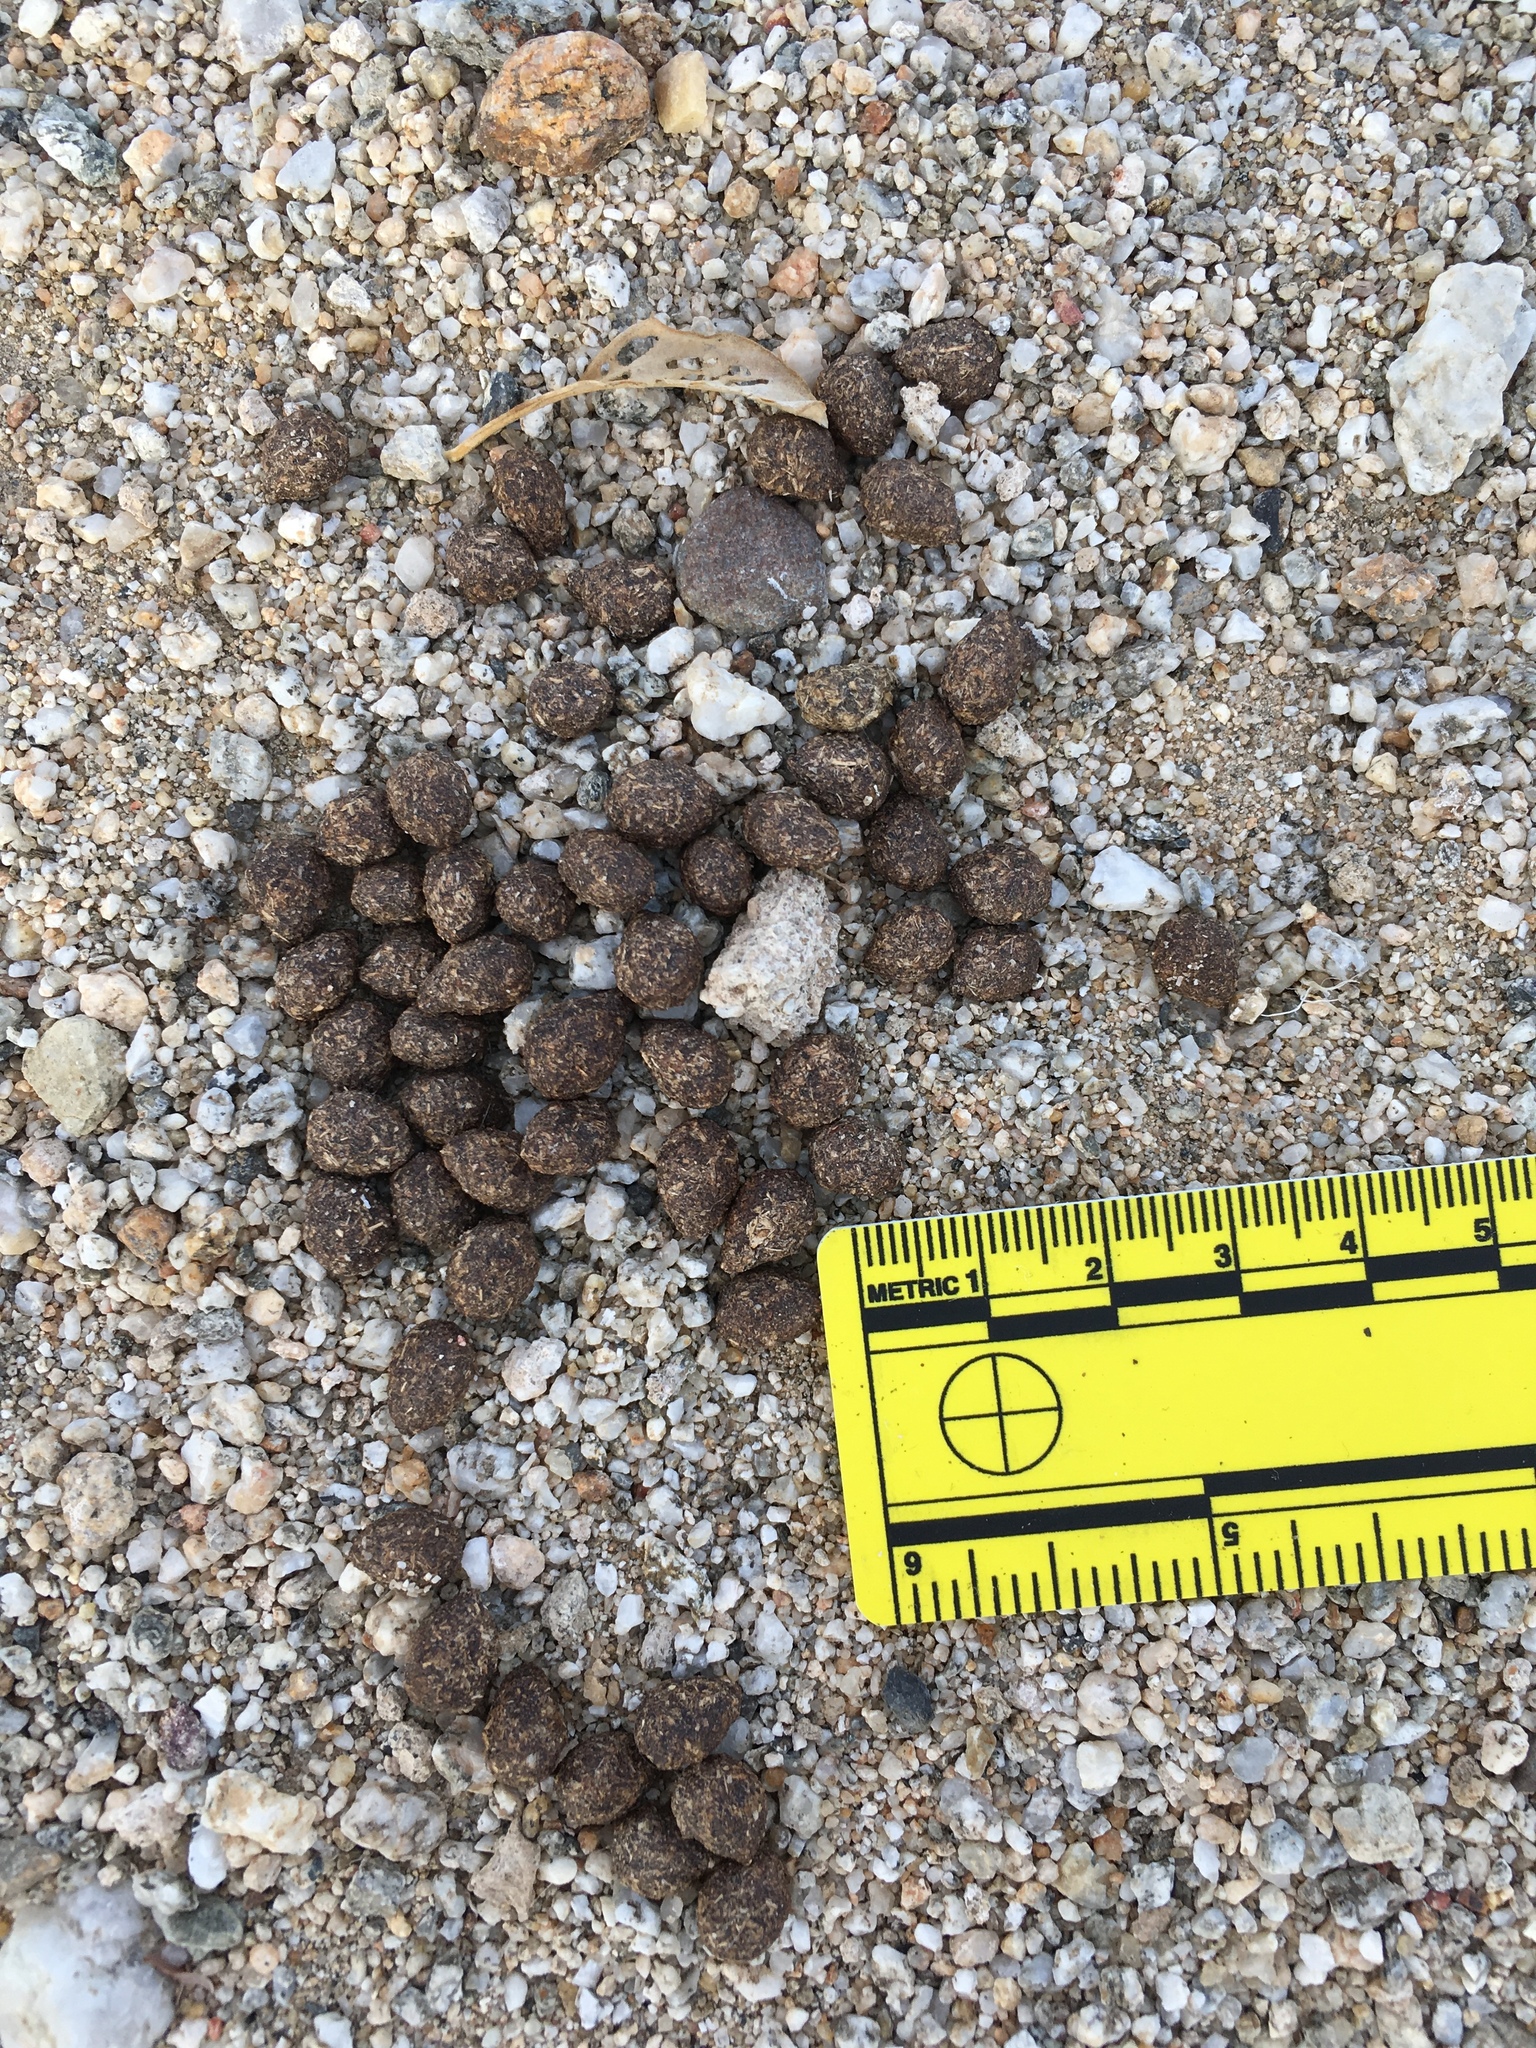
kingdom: Animalia
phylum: Chordata
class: Mammalia
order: Lagomorpha
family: Leporidae
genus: Sylvilagus
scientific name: Sylvilagus audubonii
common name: Desert cottontail
